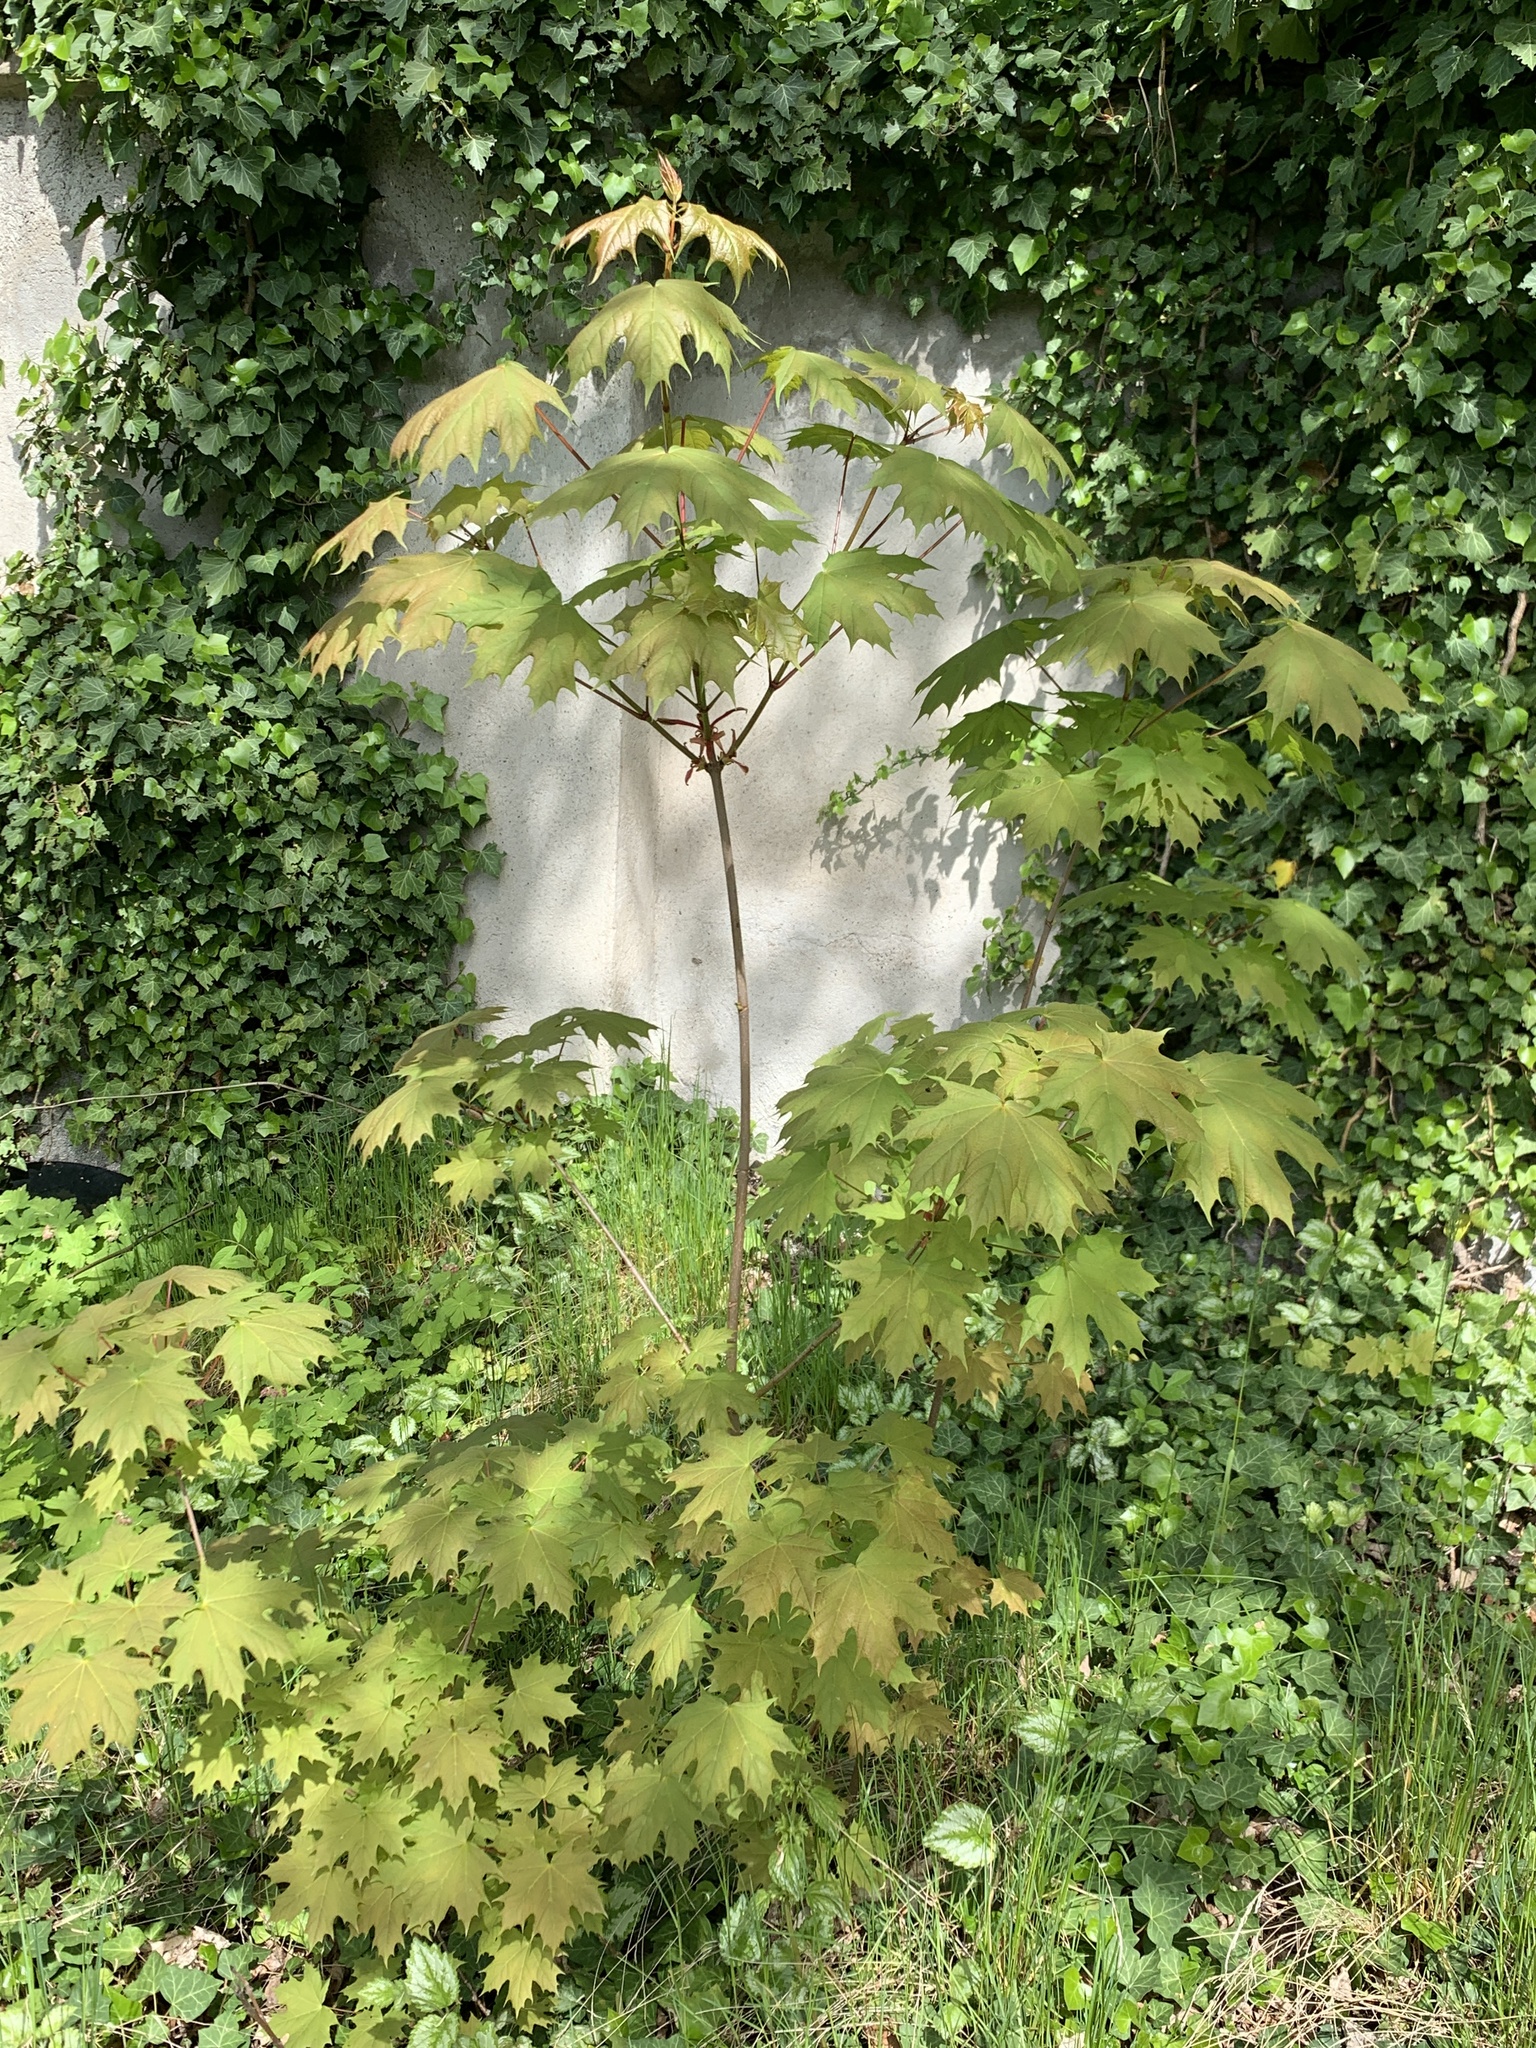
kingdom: Plantae
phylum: Tracheophyta
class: Magnoliopsida
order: Sapindales
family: Sapindaceae
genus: Acer
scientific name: Acer platanoides
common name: Norway maple
